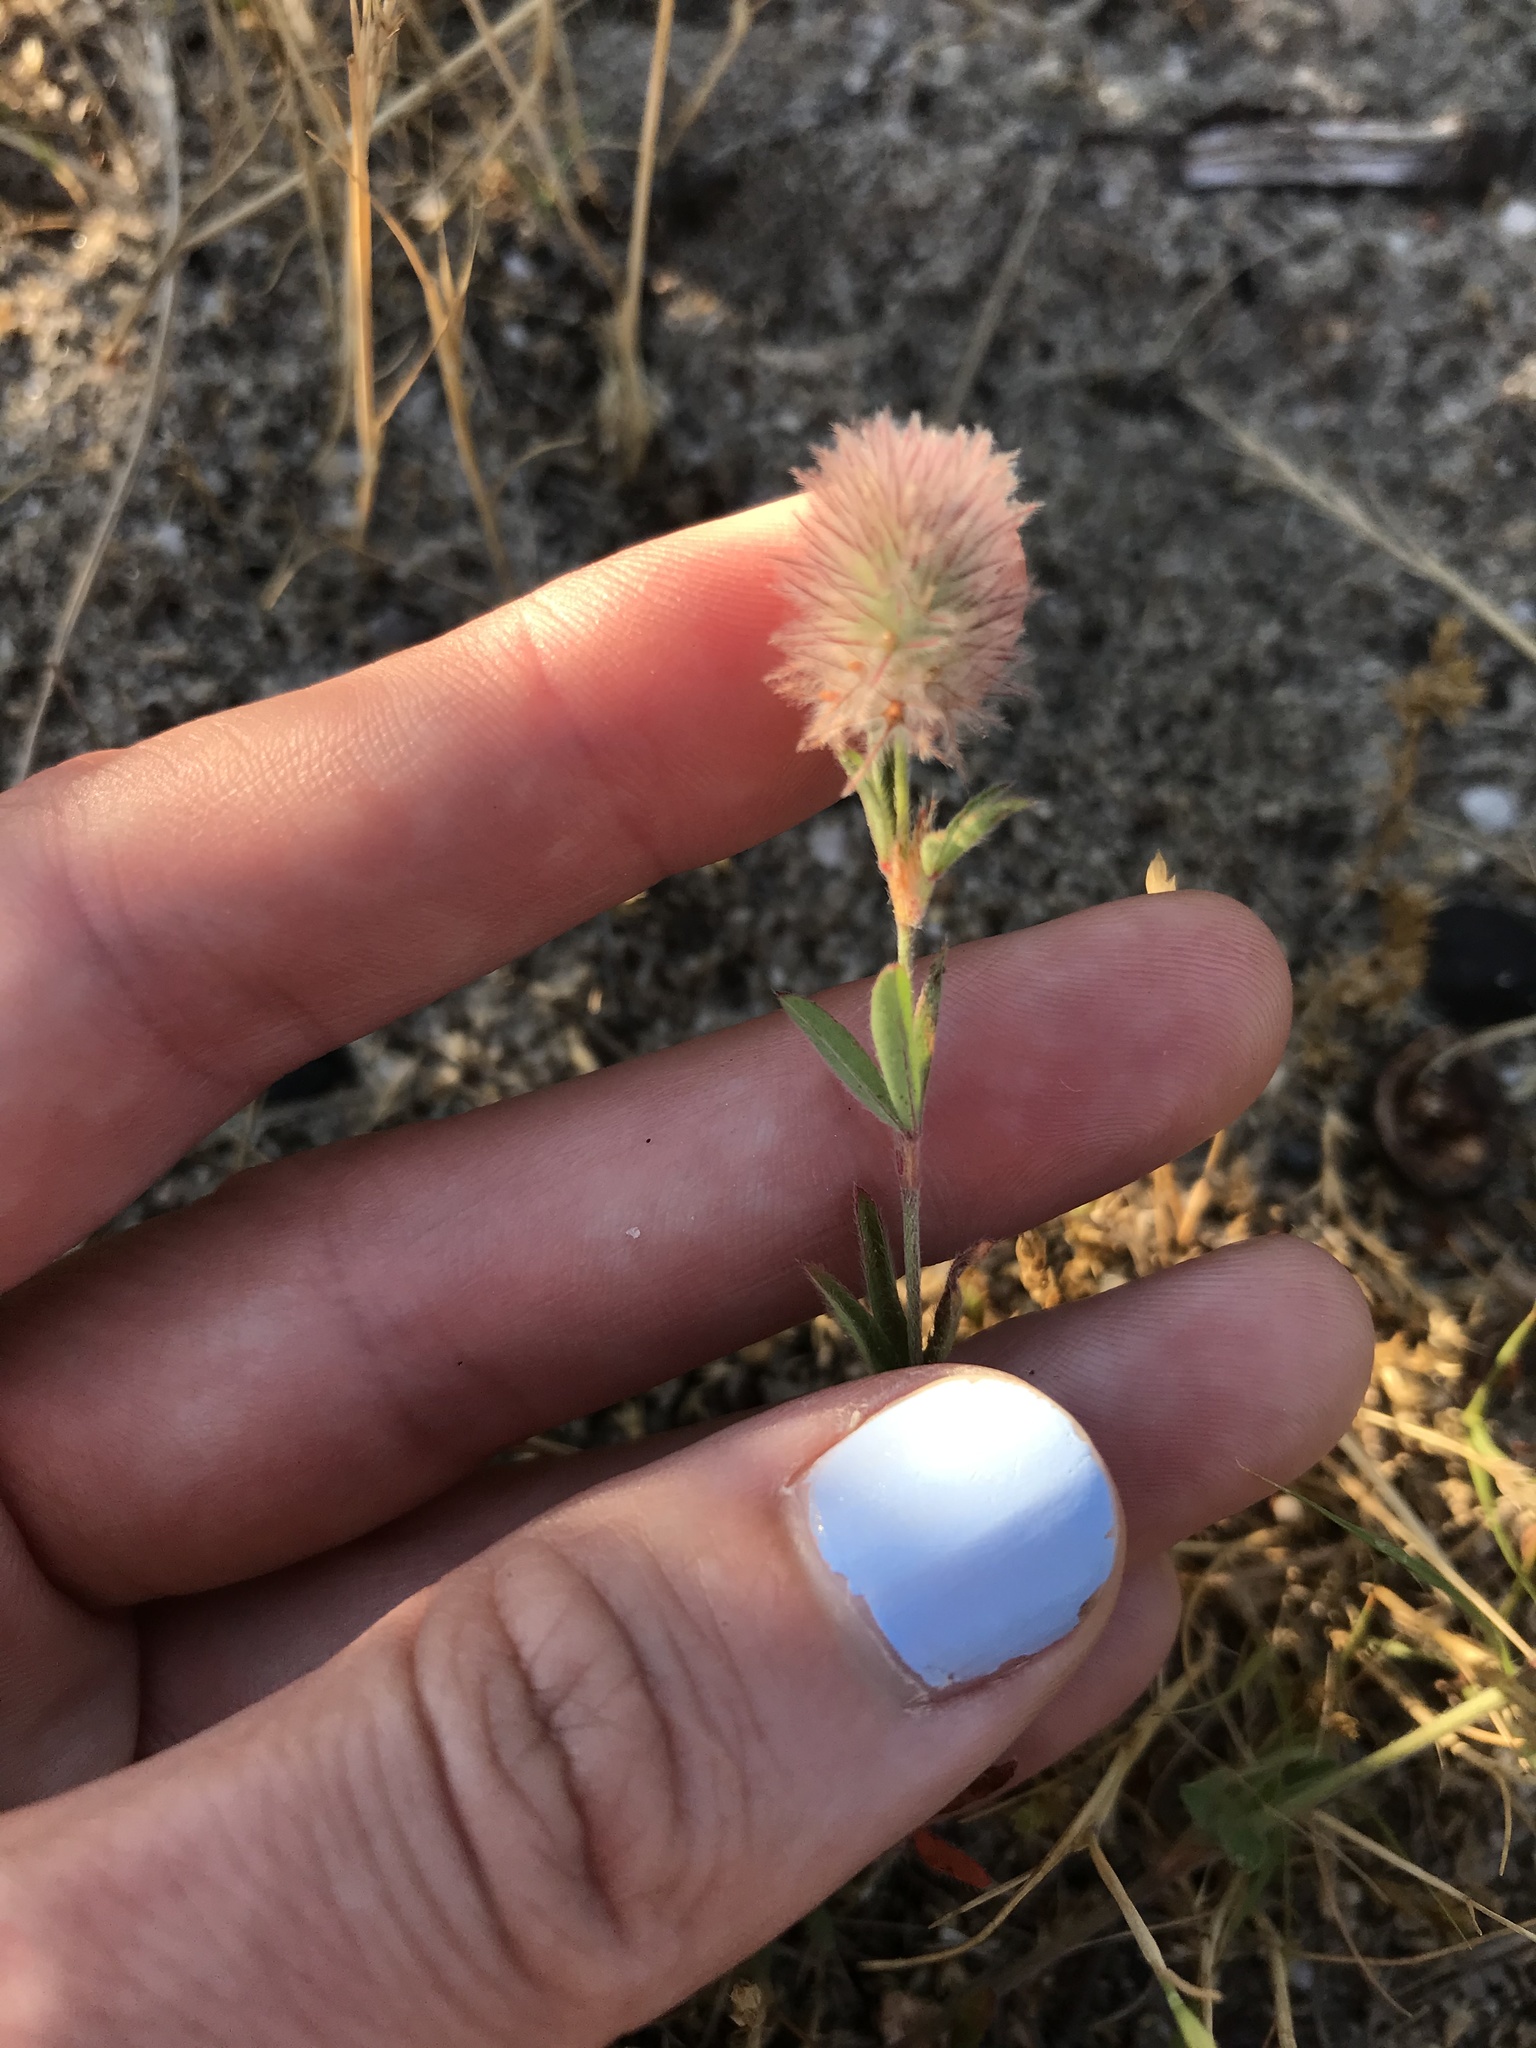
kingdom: Plantae
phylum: Tracheophyta
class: Magnoliopsida
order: Fabales
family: Fabaceae
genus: Trifolium
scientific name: Trifolium arvense
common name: Hare's-foot clover
